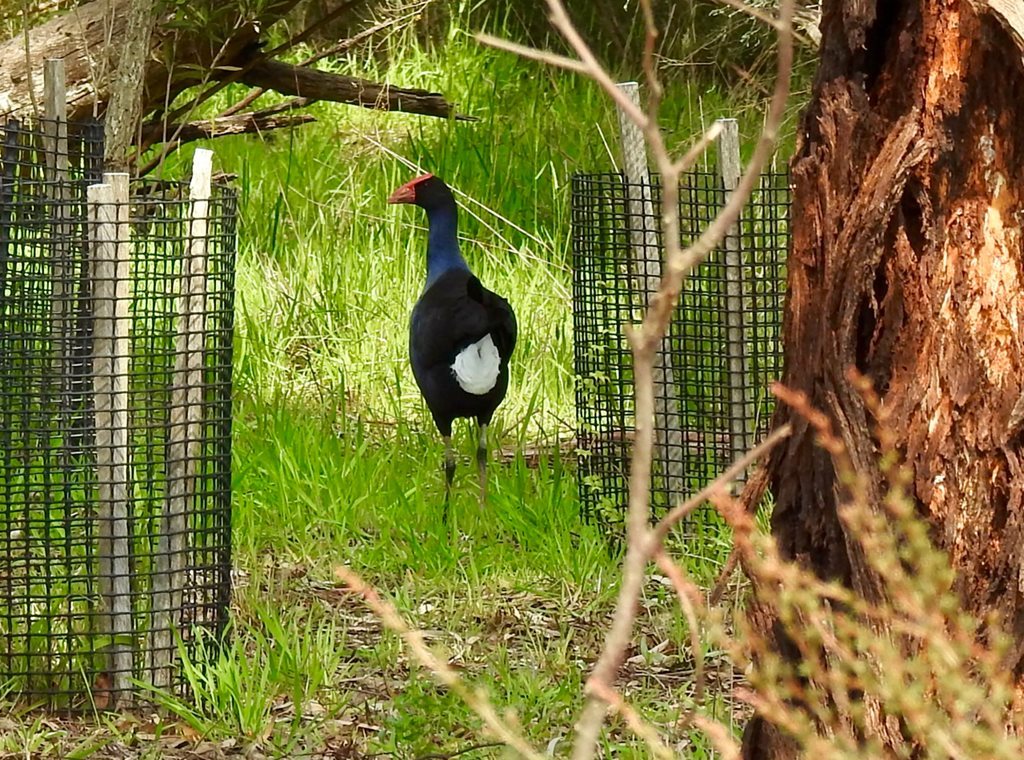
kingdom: Animalia
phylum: Chordata
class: Aves
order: Gruiformes
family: Rallidae
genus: Porphyrio
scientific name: Porphyrio melanotus
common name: Australasian swamphen
